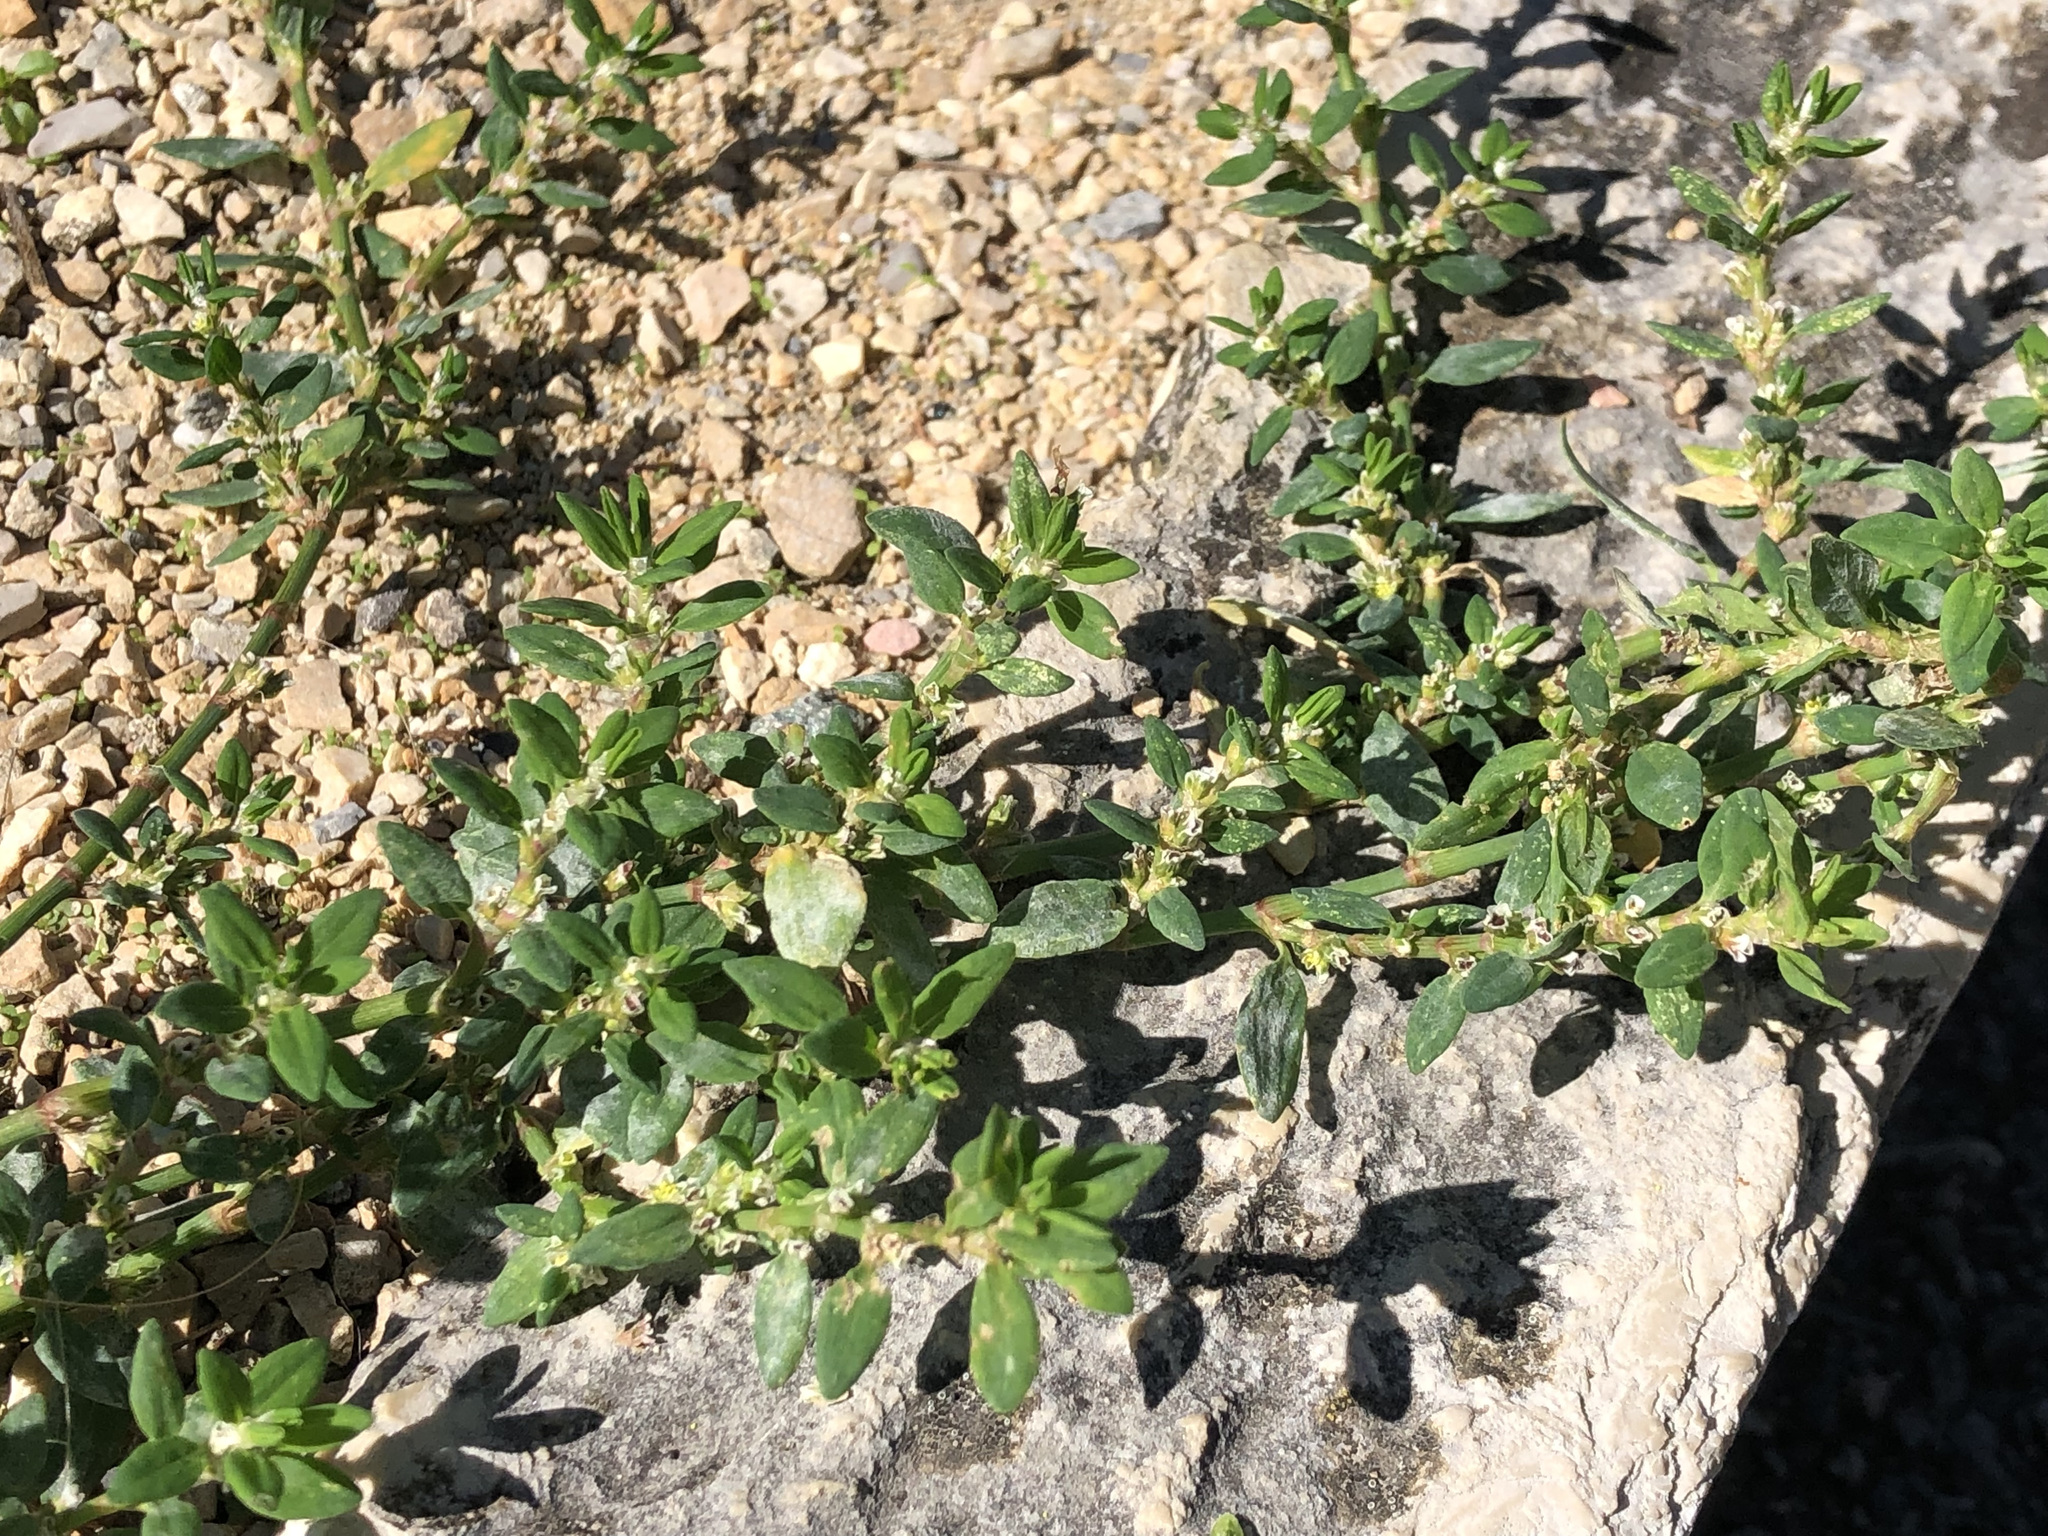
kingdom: Plantae
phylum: Tracheophyta
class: Magnoliopsida
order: Caryophyllales
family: Polygonaceae
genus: Polygonum
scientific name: Polygonum aviculare
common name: Prostrate knotweed
